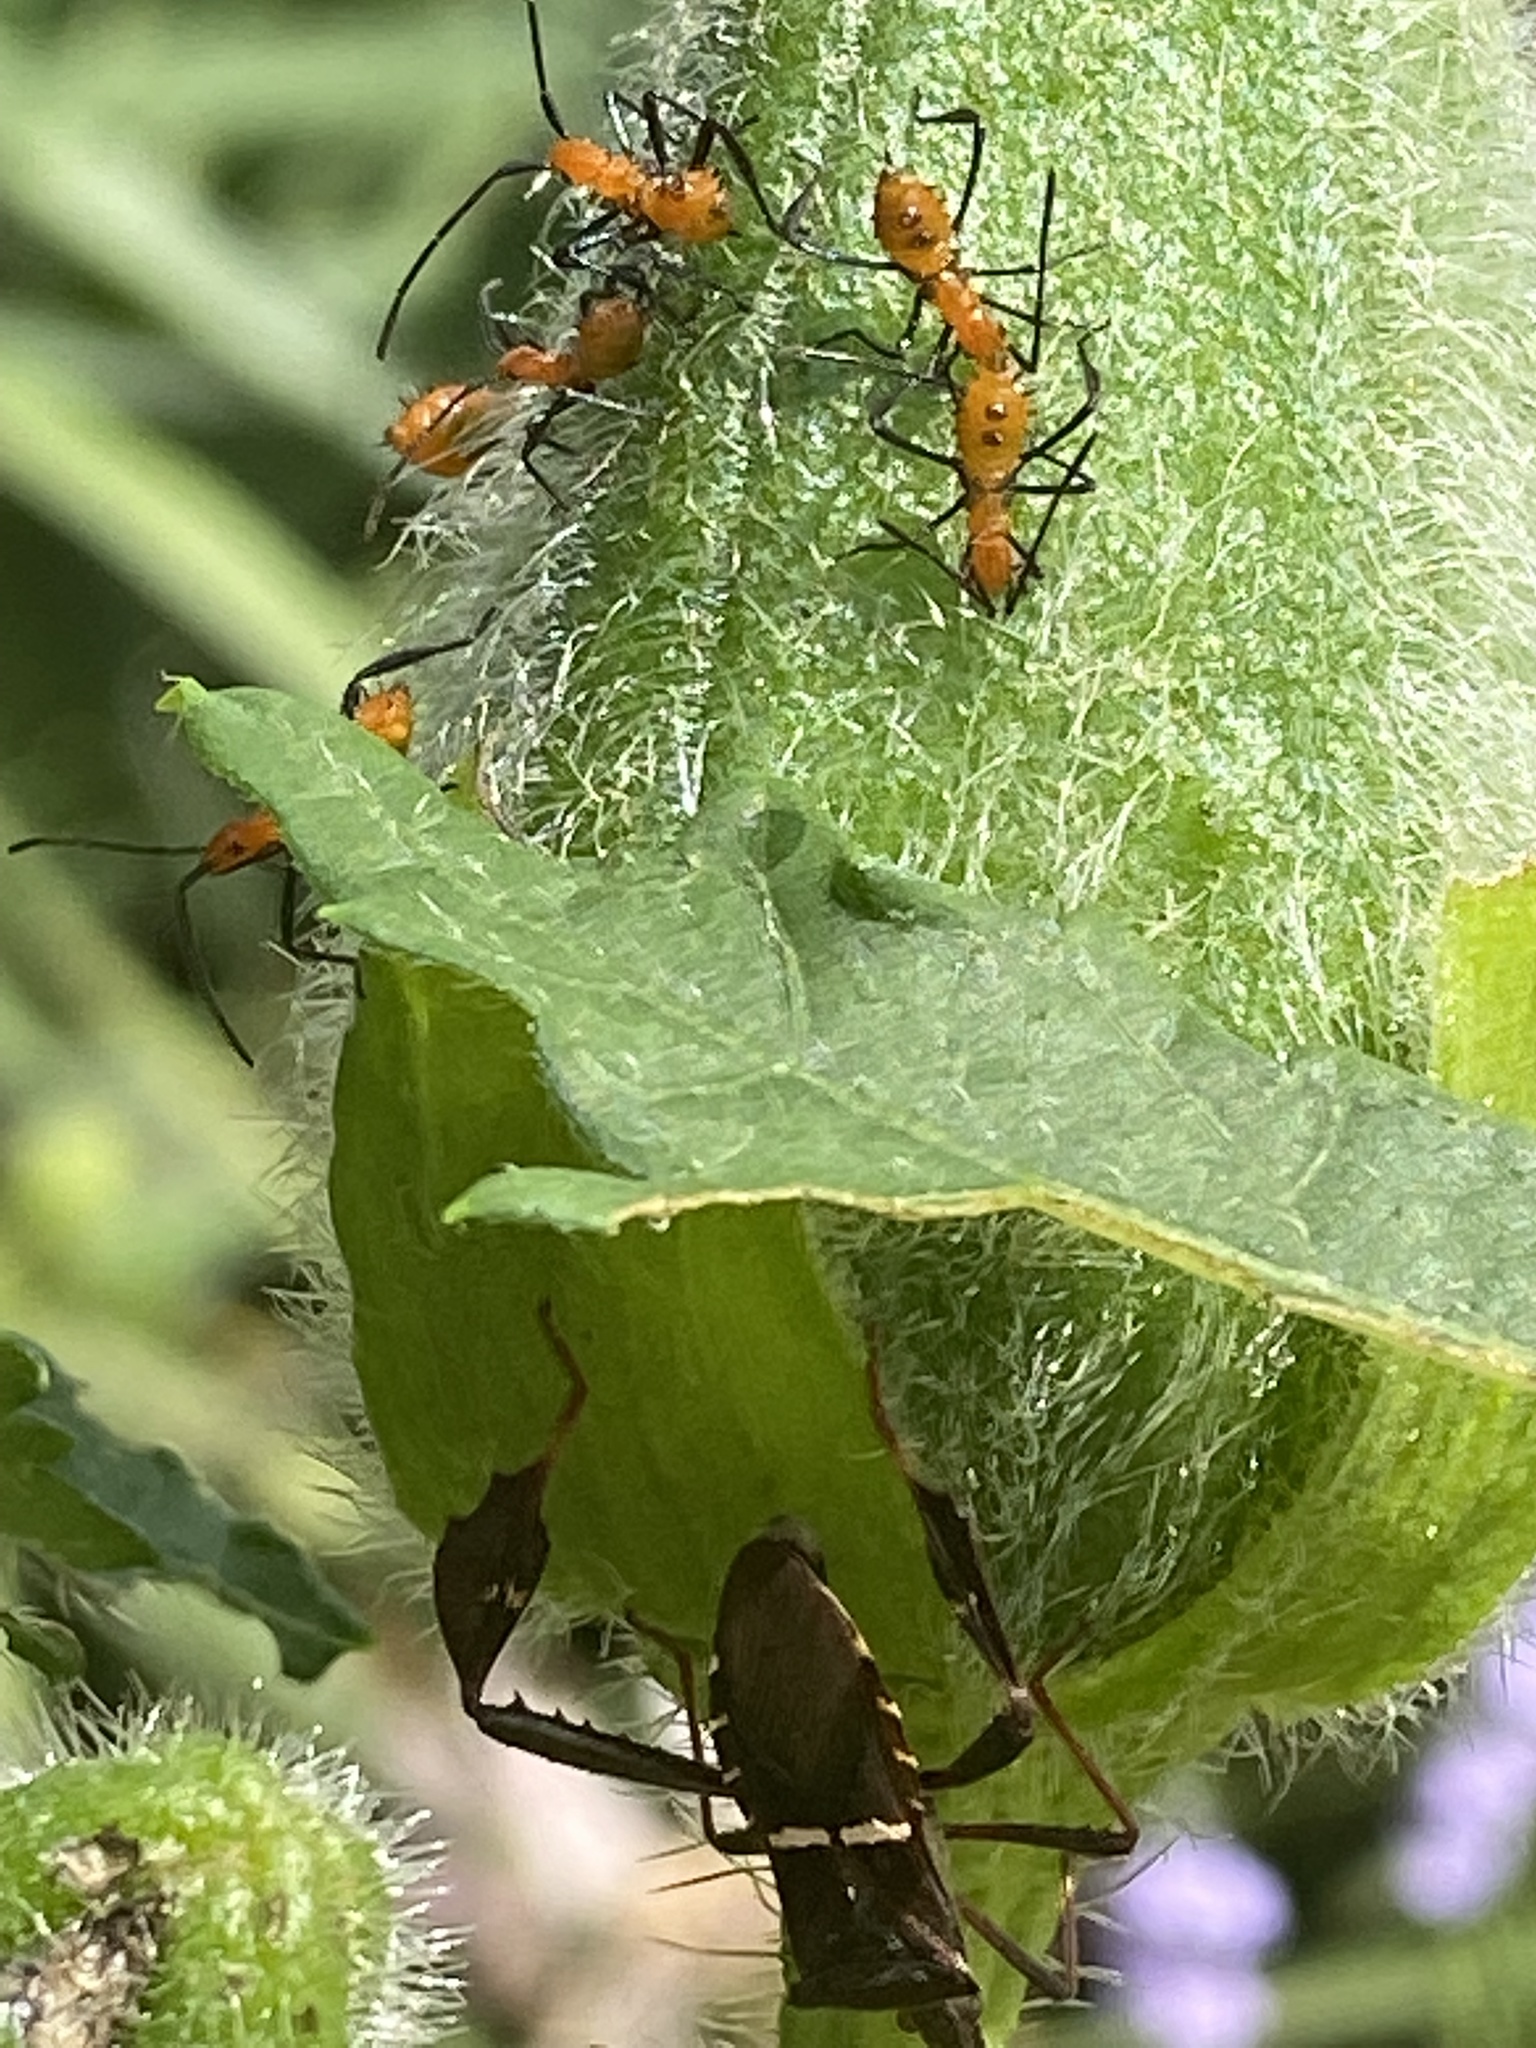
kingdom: Animalia
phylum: Arthropoda
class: Insecta
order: Hemiptera
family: Coreidae
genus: Leptoglossus
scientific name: Leptoglossus phyllopus
